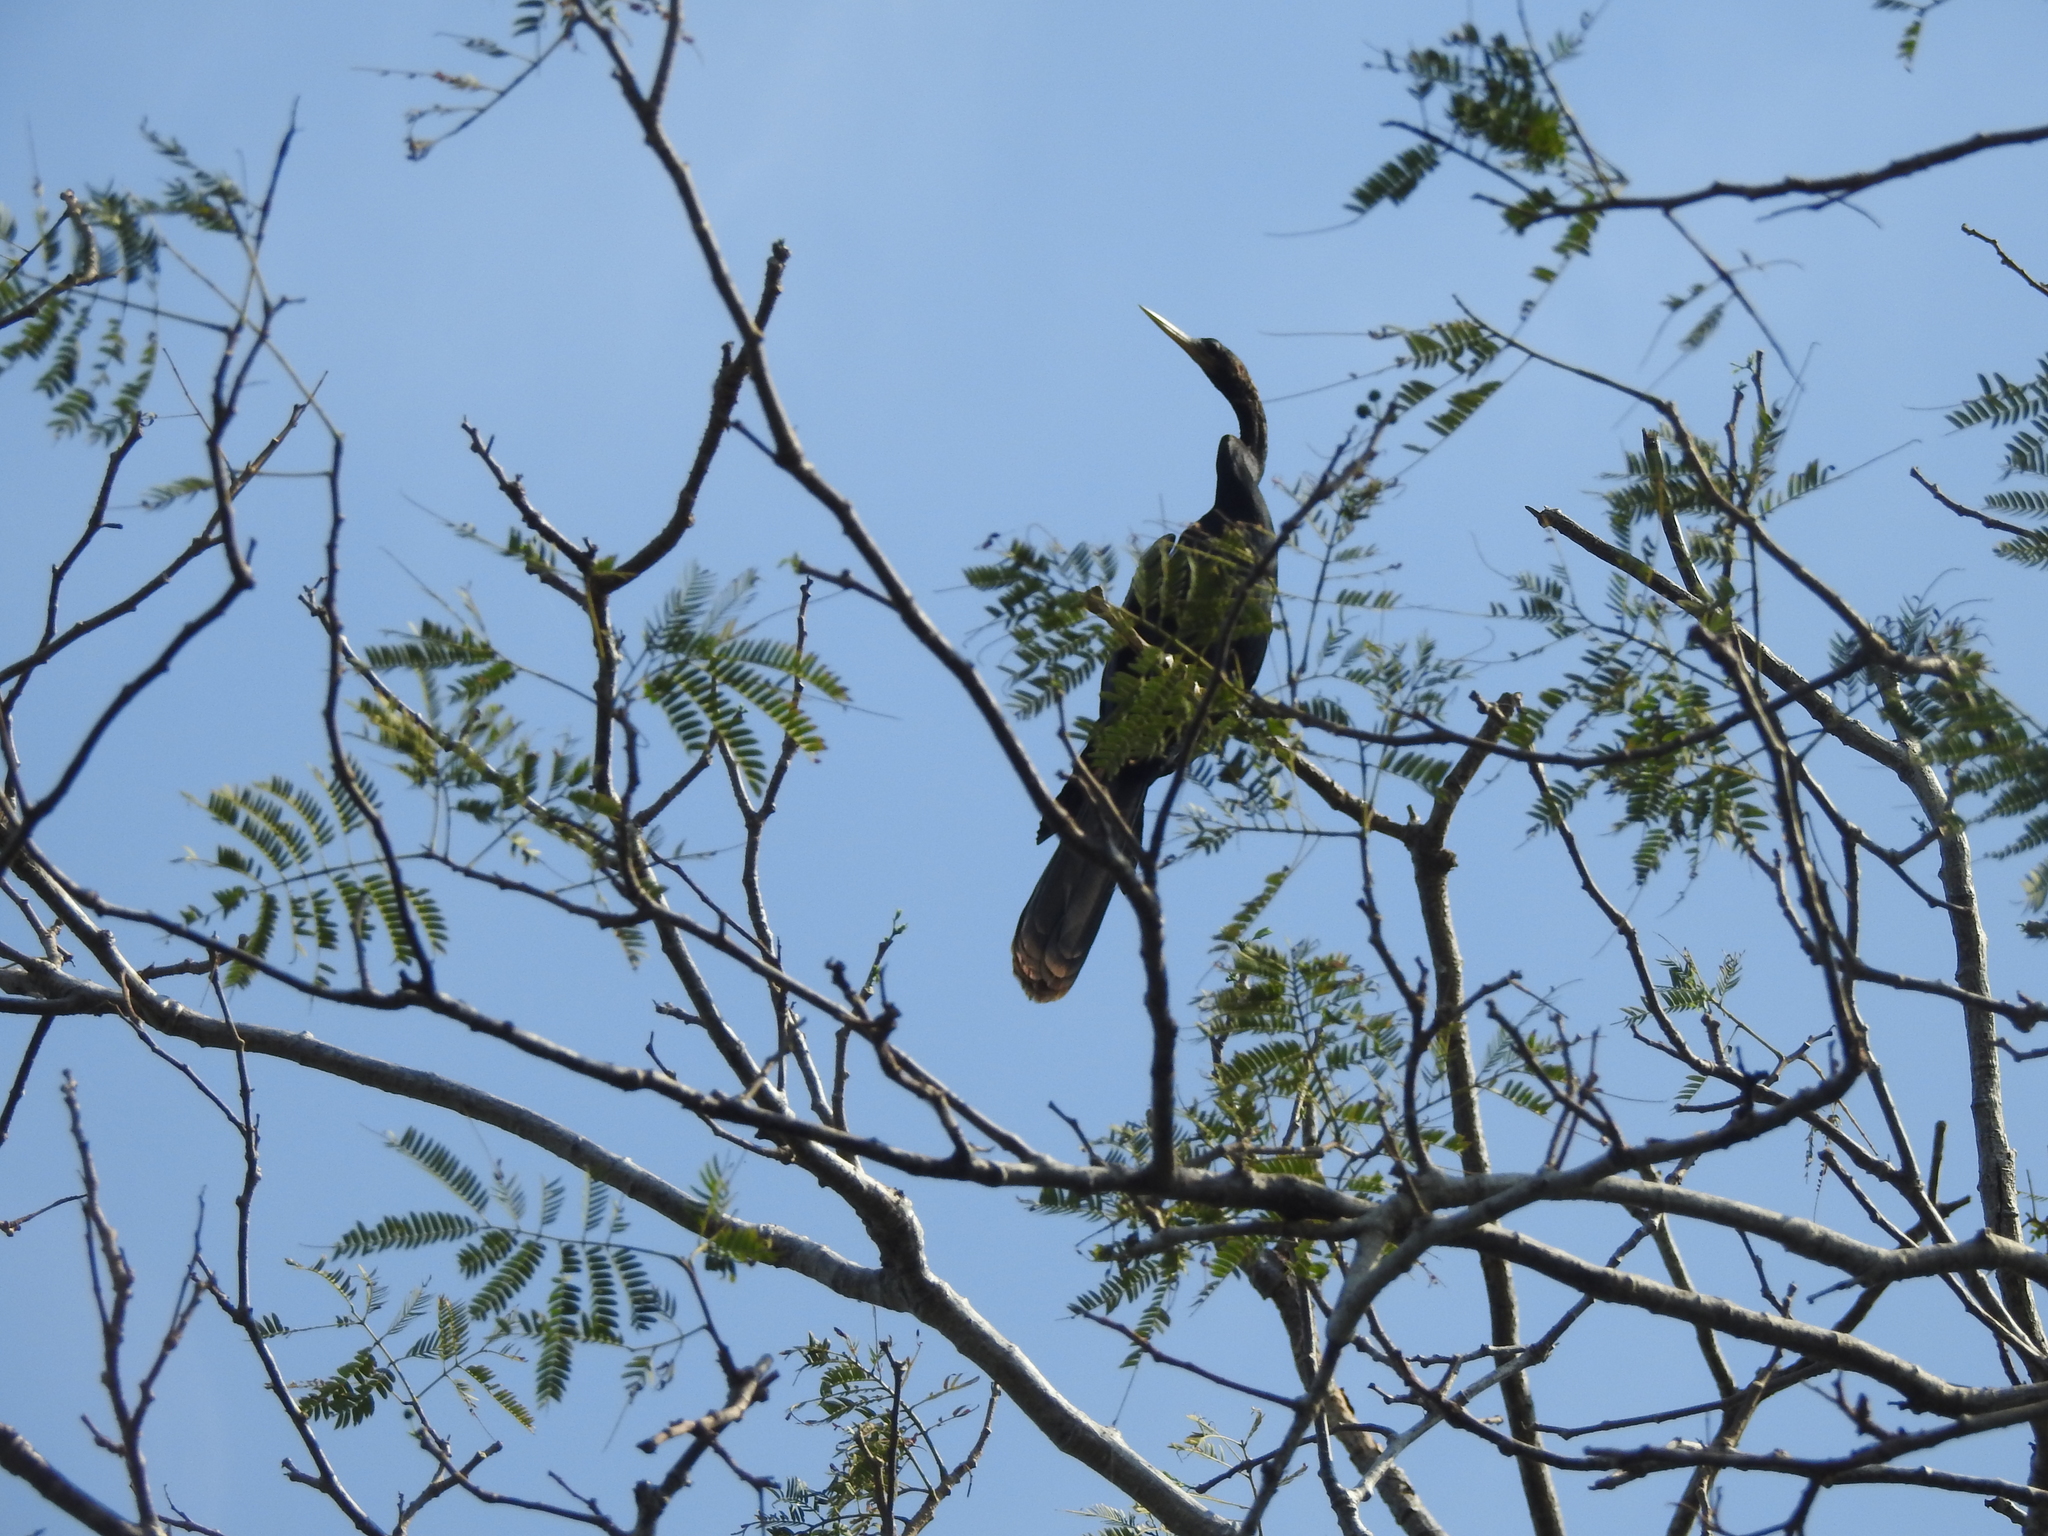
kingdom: Animalia
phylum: Chordata
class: Aves
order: Suliformes
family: Anhingidae
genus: Anhinga
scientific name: Anhinga anhinga
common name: Anhinga
